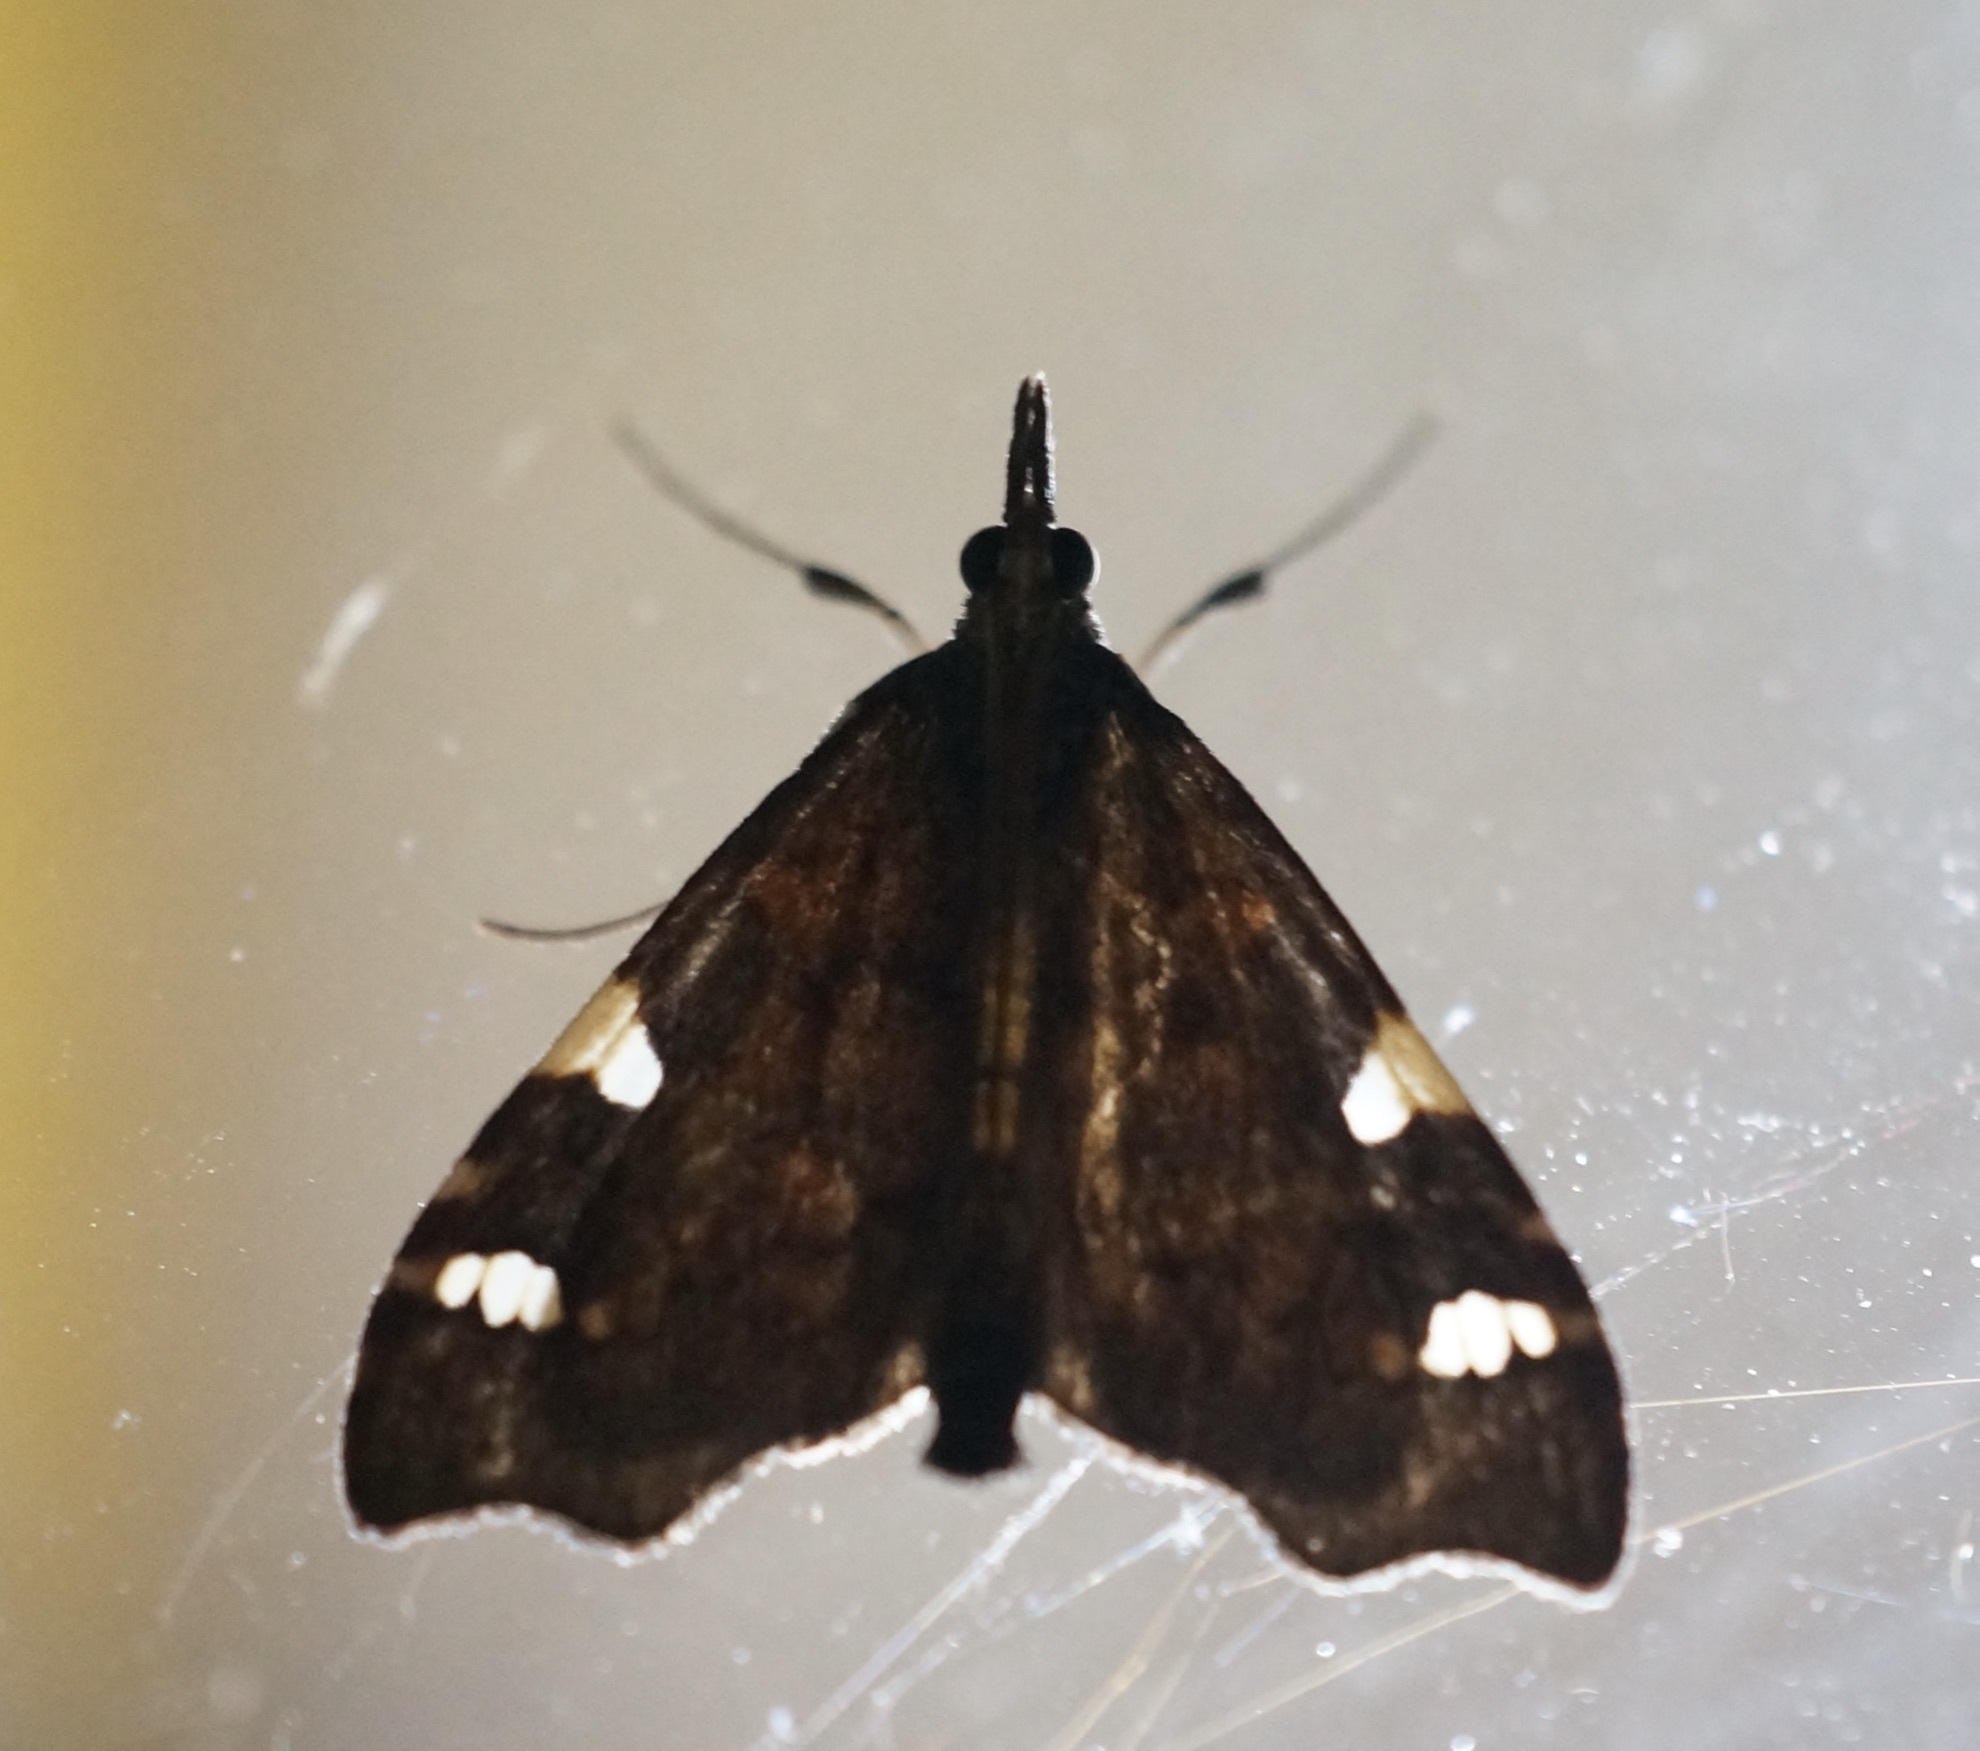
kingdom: Animalia
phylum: Arthropoda
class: Insecta
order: Lepidoptera
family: Crambidae
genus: Deana
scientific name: Deana hybreasalis
